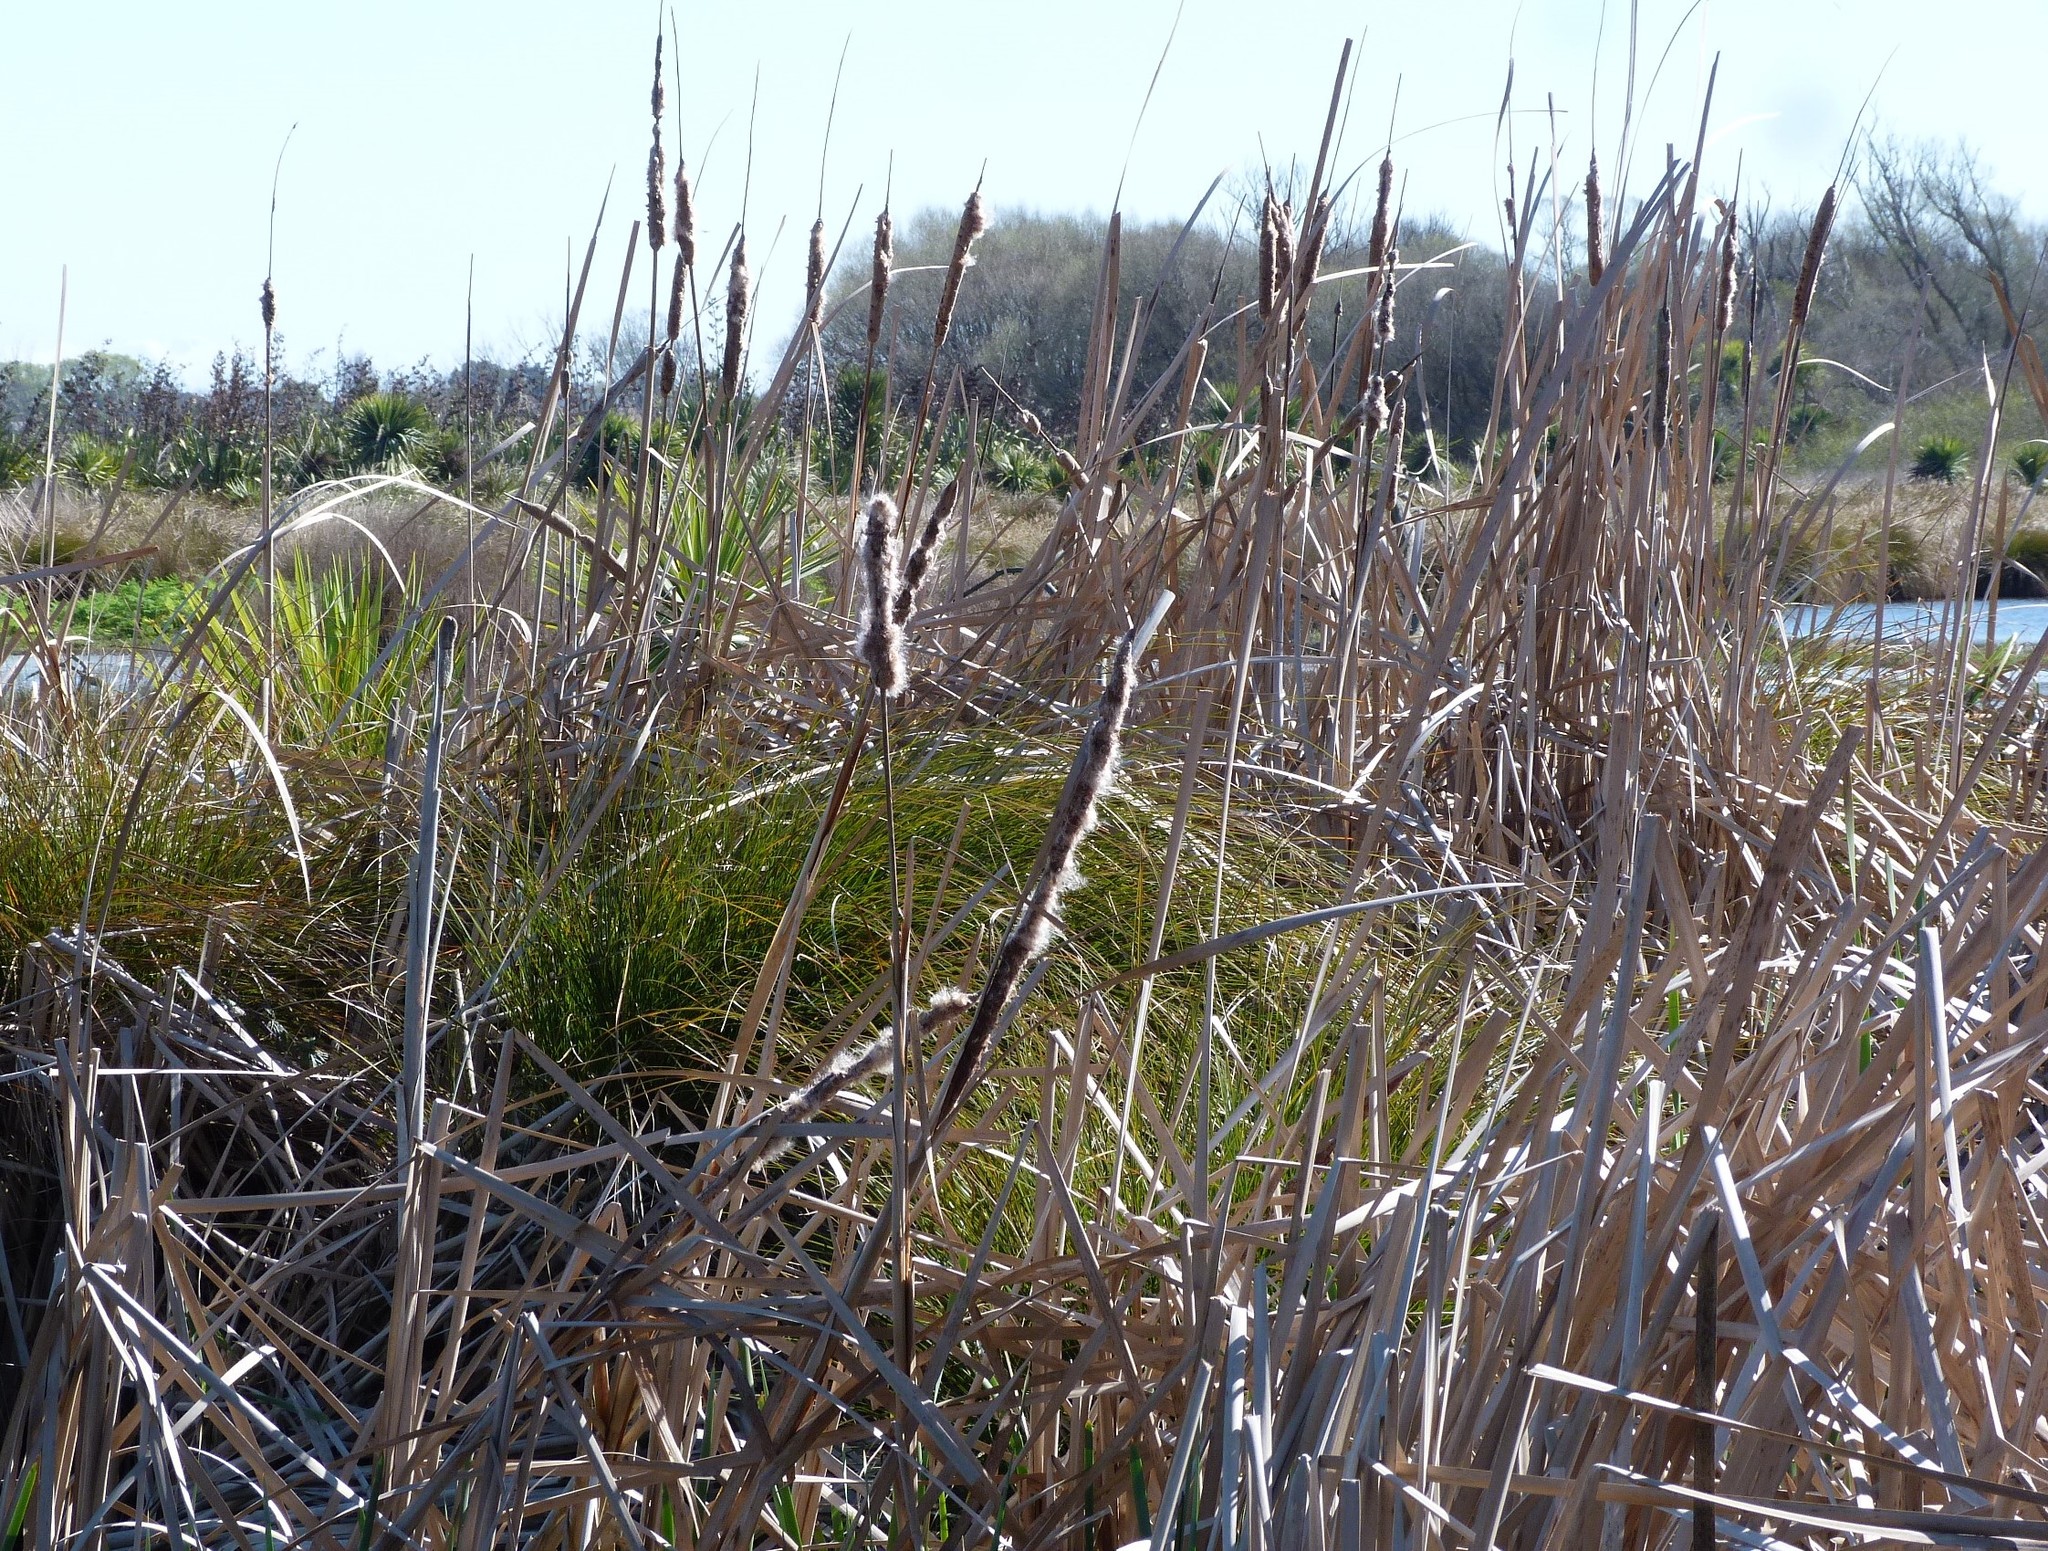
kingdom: Plantae
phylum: Tracheophyta
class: Liliopsida
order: Poales
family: Typhaceae
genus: Typha
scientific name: Typha orientalis
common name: Bullrush
